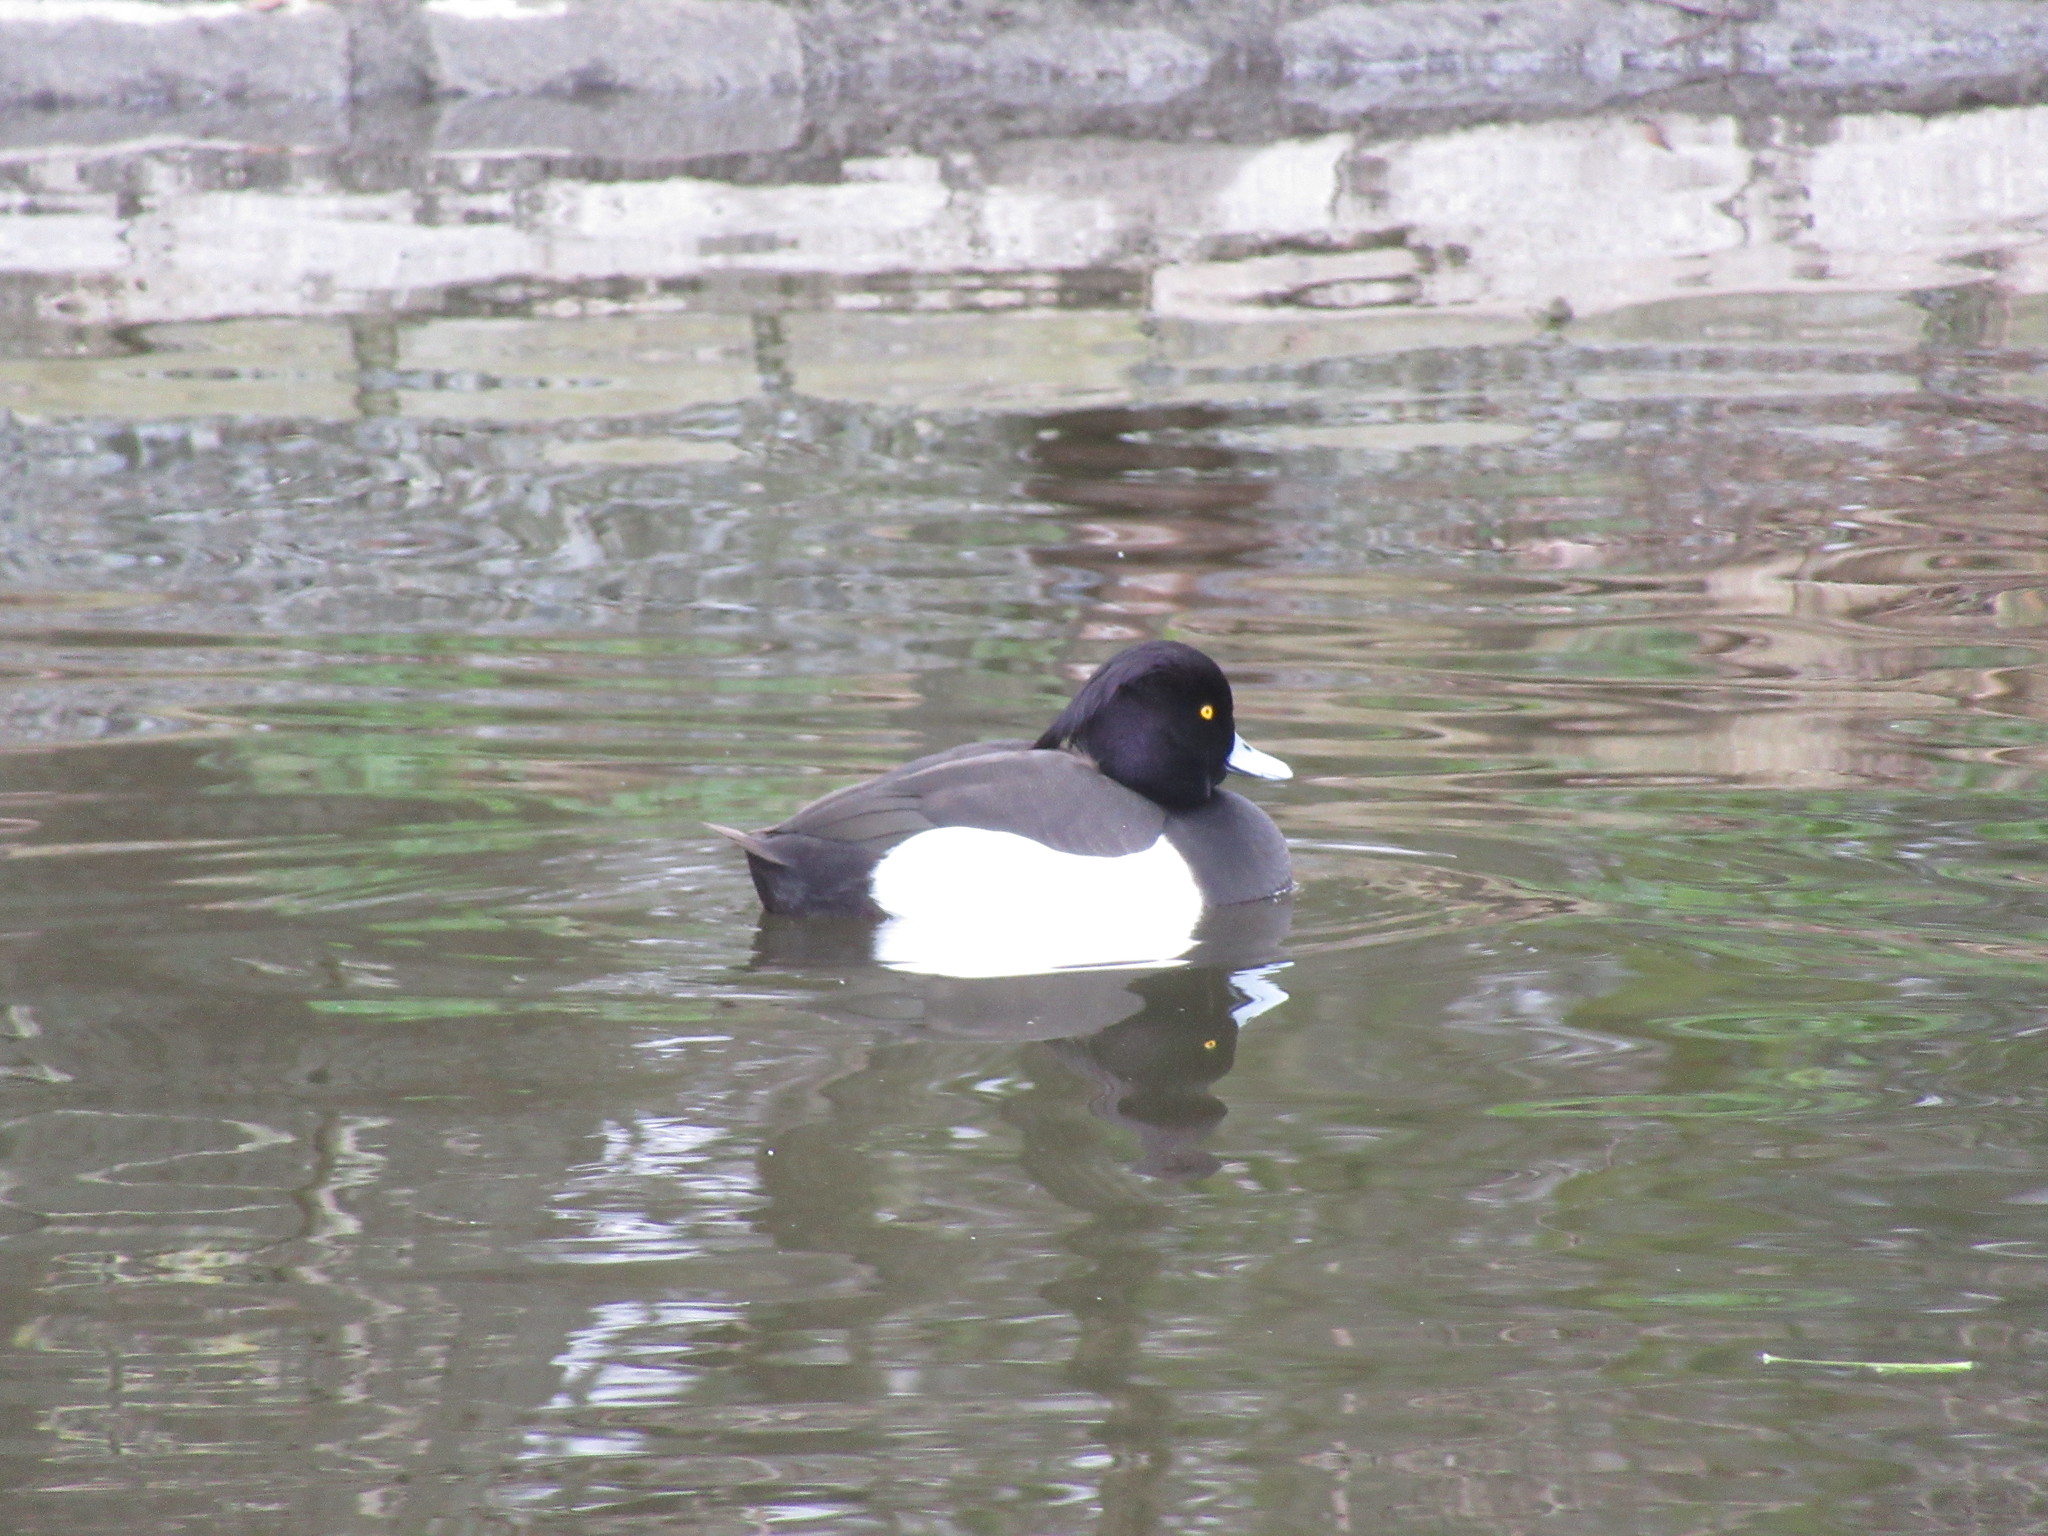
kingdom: Animalia
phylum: Chordata
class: Aves
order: Anseriformes
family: Anatidae
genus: Aythya
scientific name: Aythya fuligula
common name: Tufted duck
